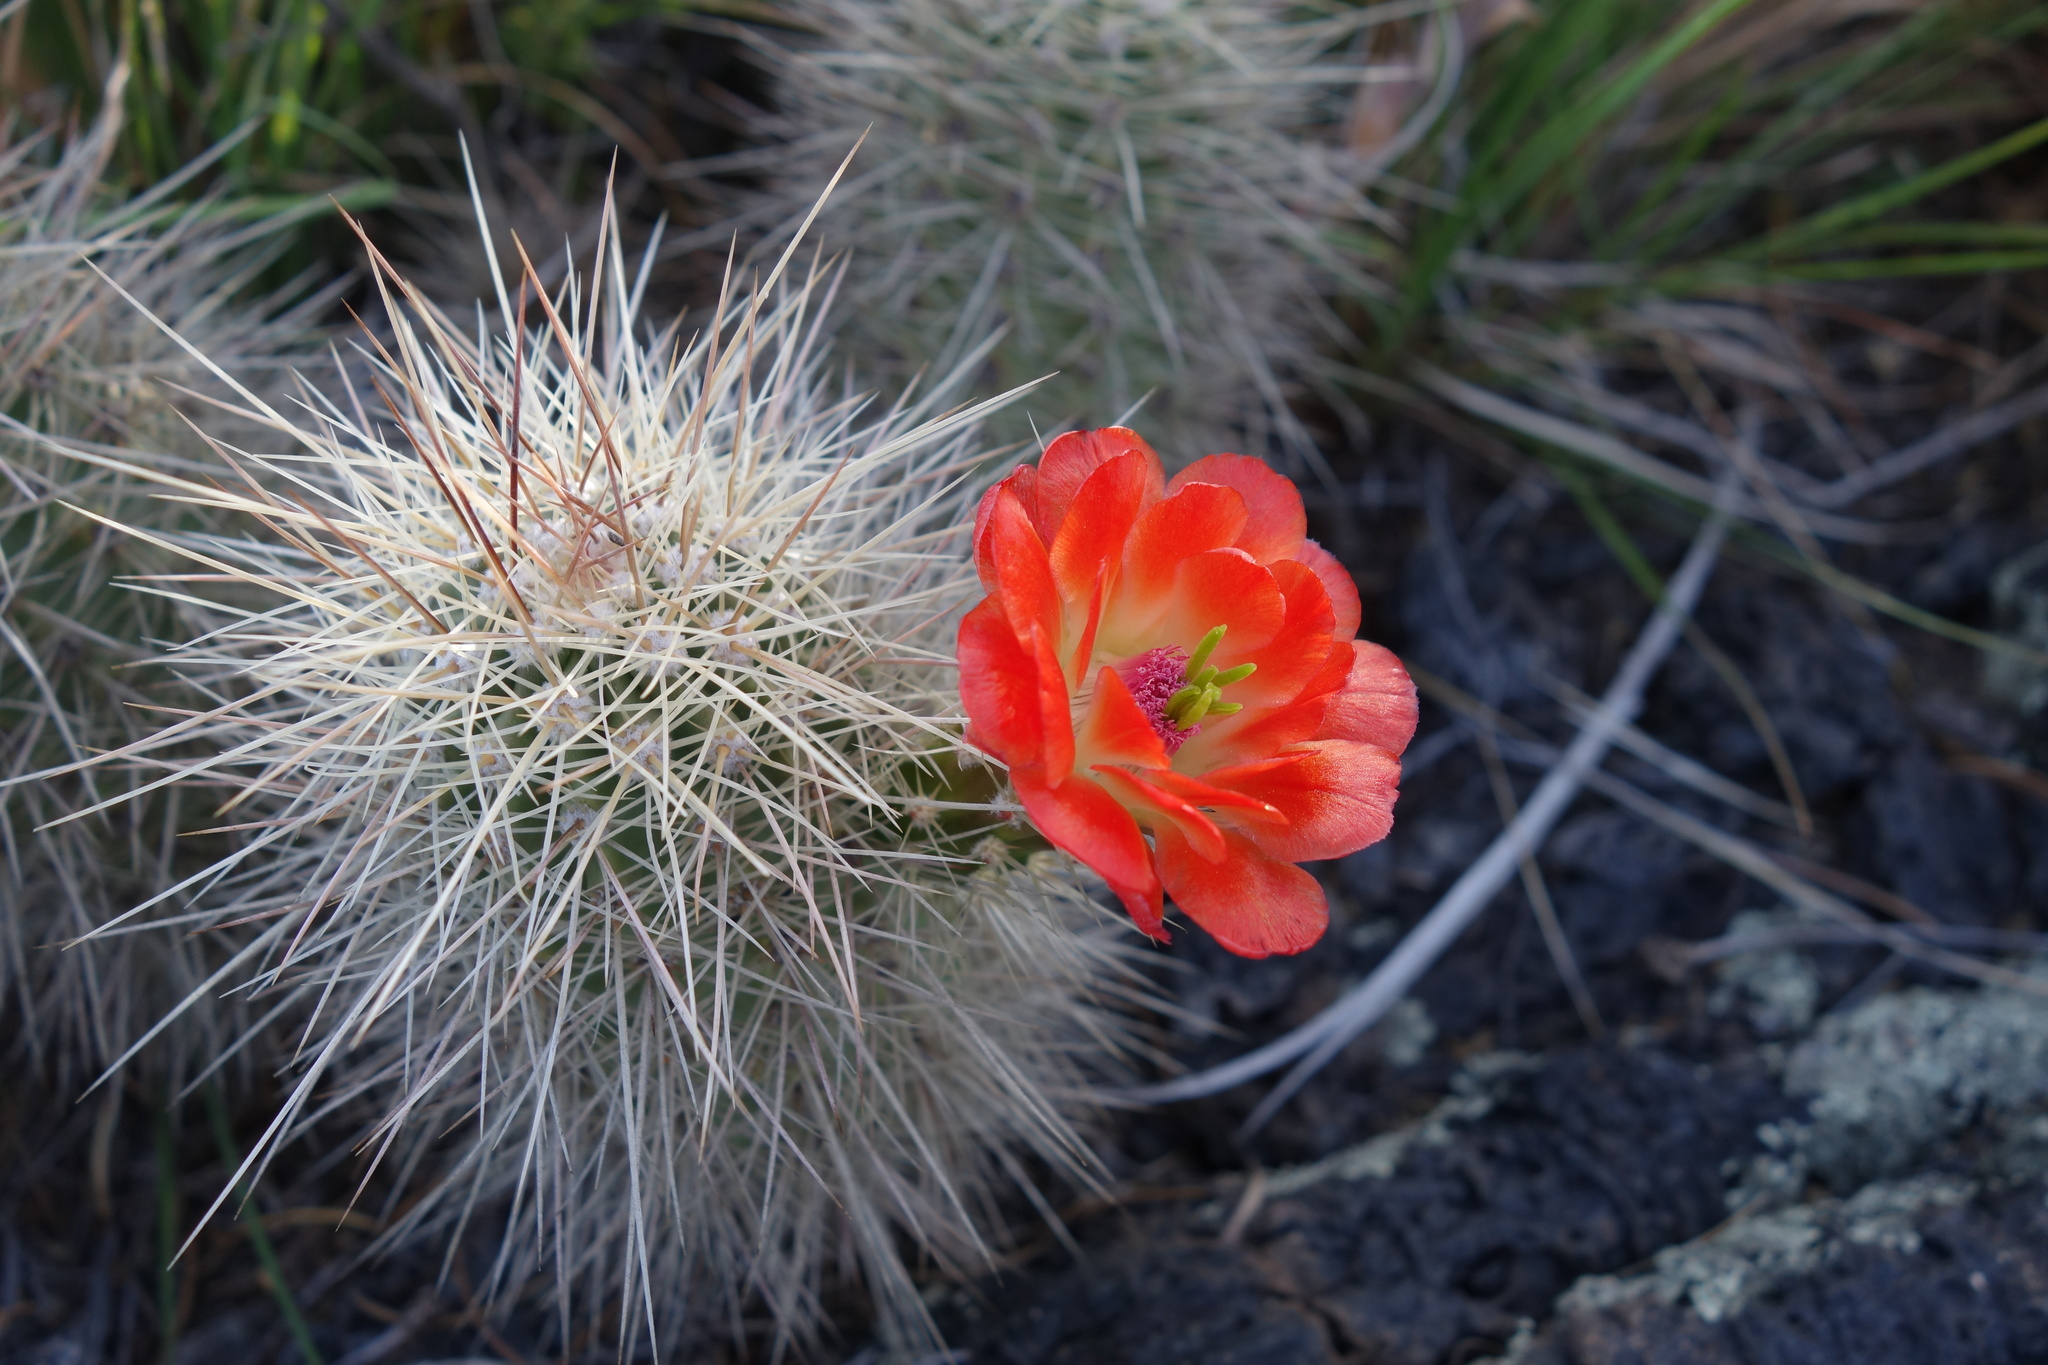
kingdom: Plantae
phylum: Tracheophyta
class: Magnoliopsida
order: Caryophyllales
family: Cactaceae
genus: Echinocereus
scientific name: Echinocereus coccineus
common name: Scarlet hedgehog cactus
